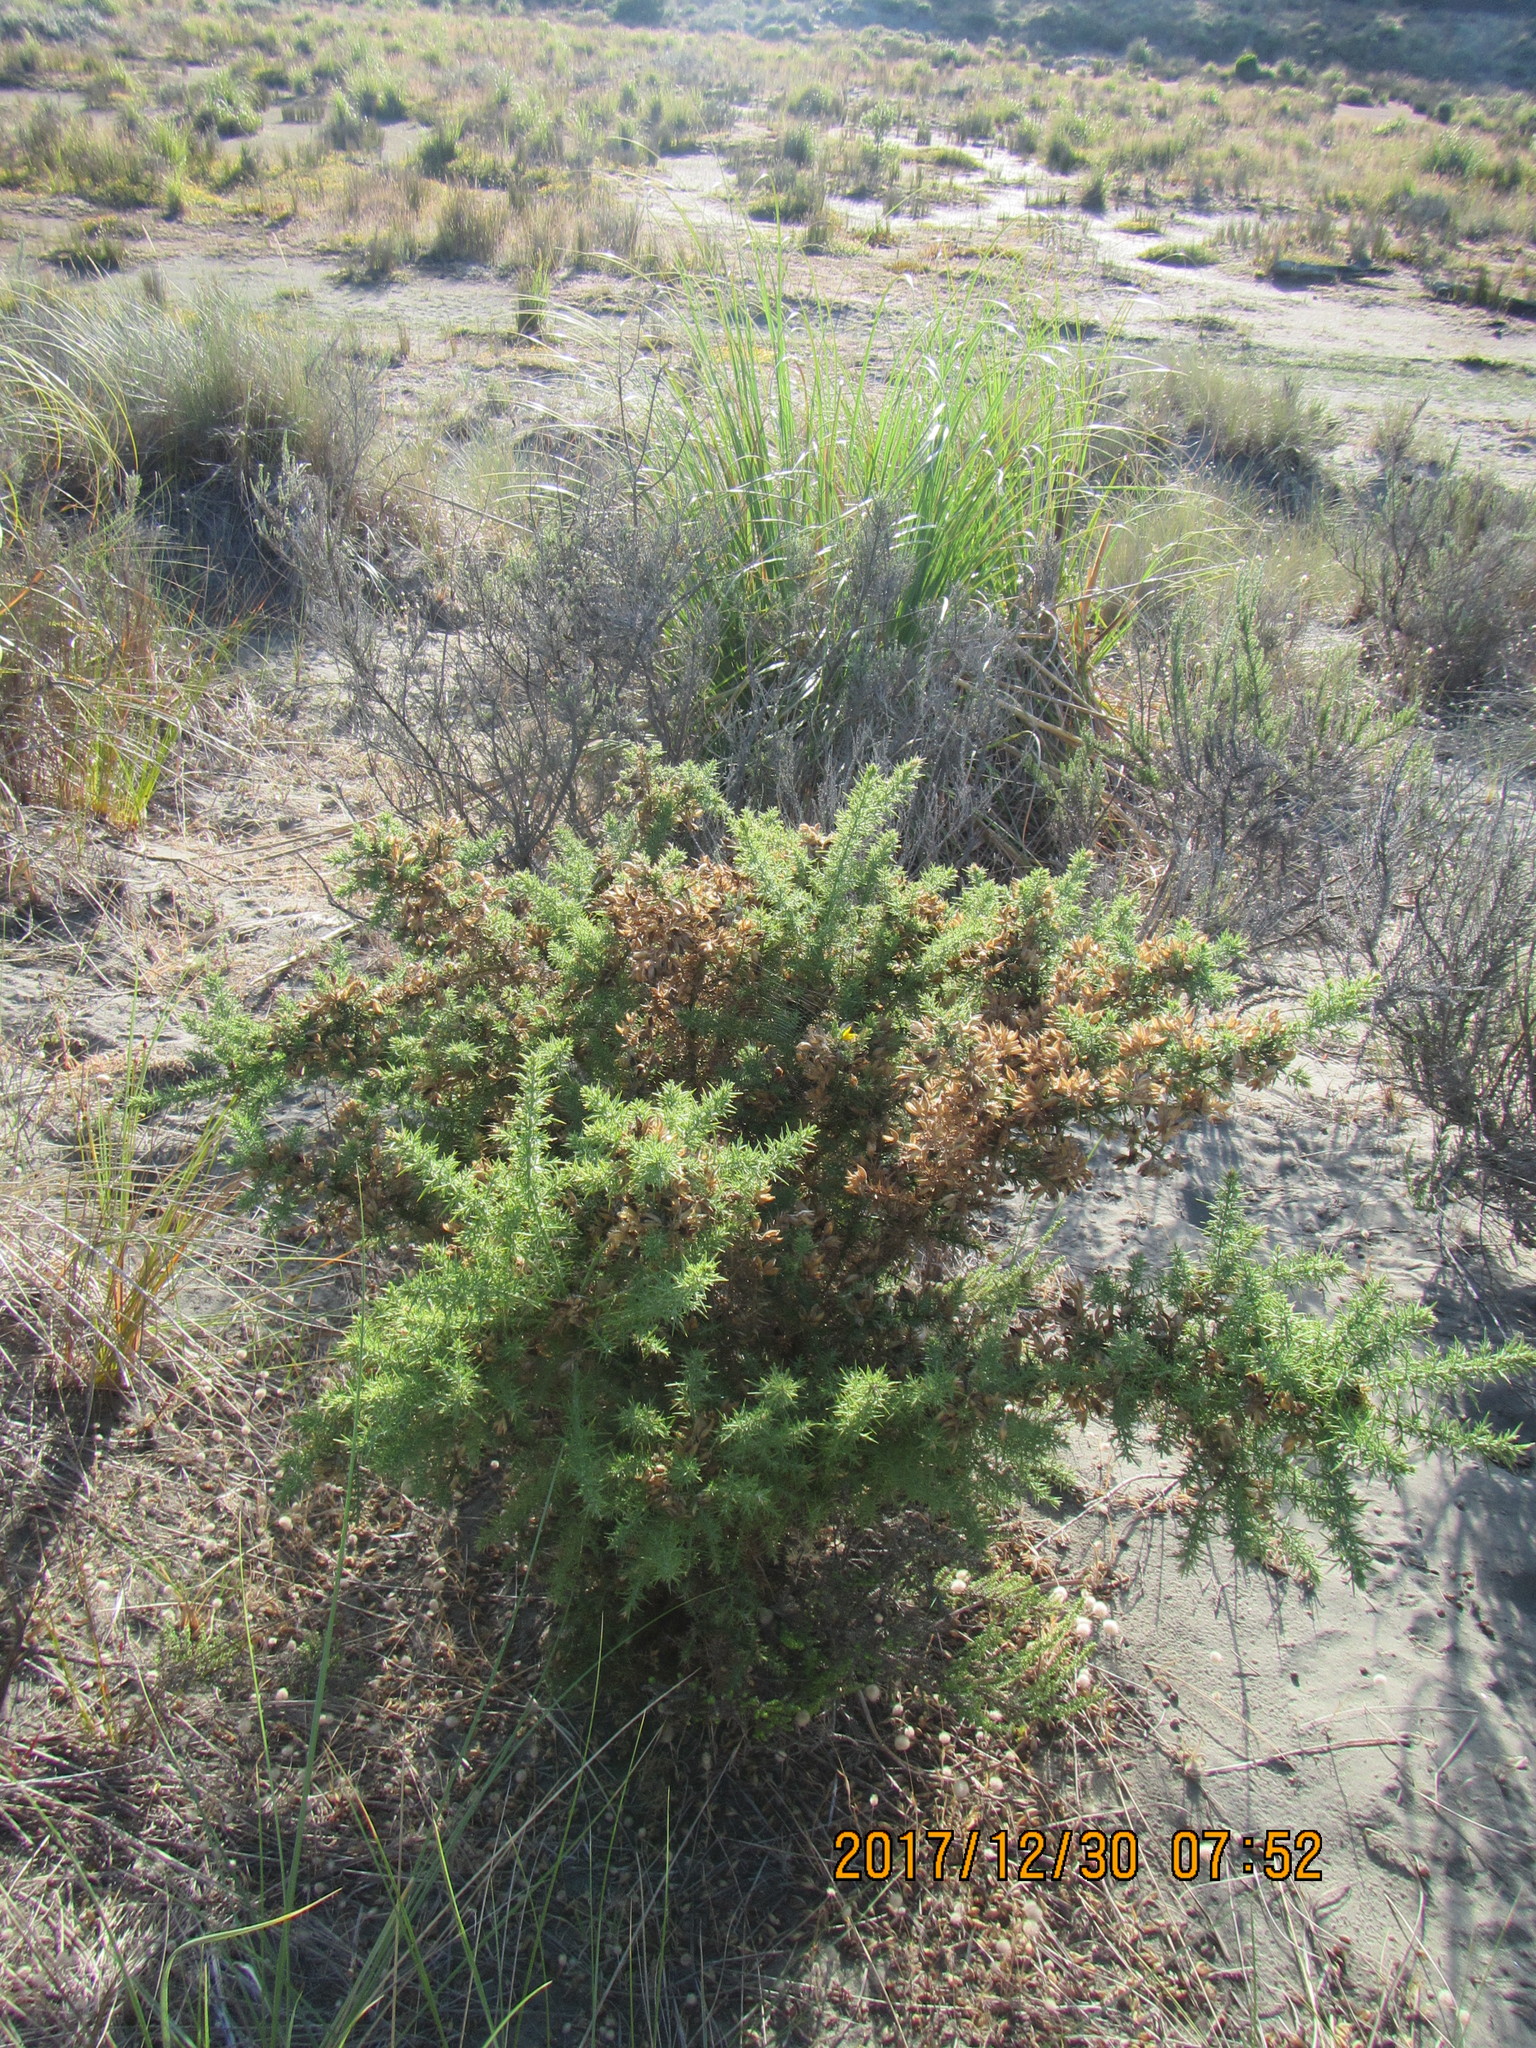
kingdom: Plantae
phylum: Tracheophyta
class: Magnoliopsida
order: Fabales
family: Fabaceae
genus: Ulex
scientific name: Ulex europaeus
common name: Common gorse
